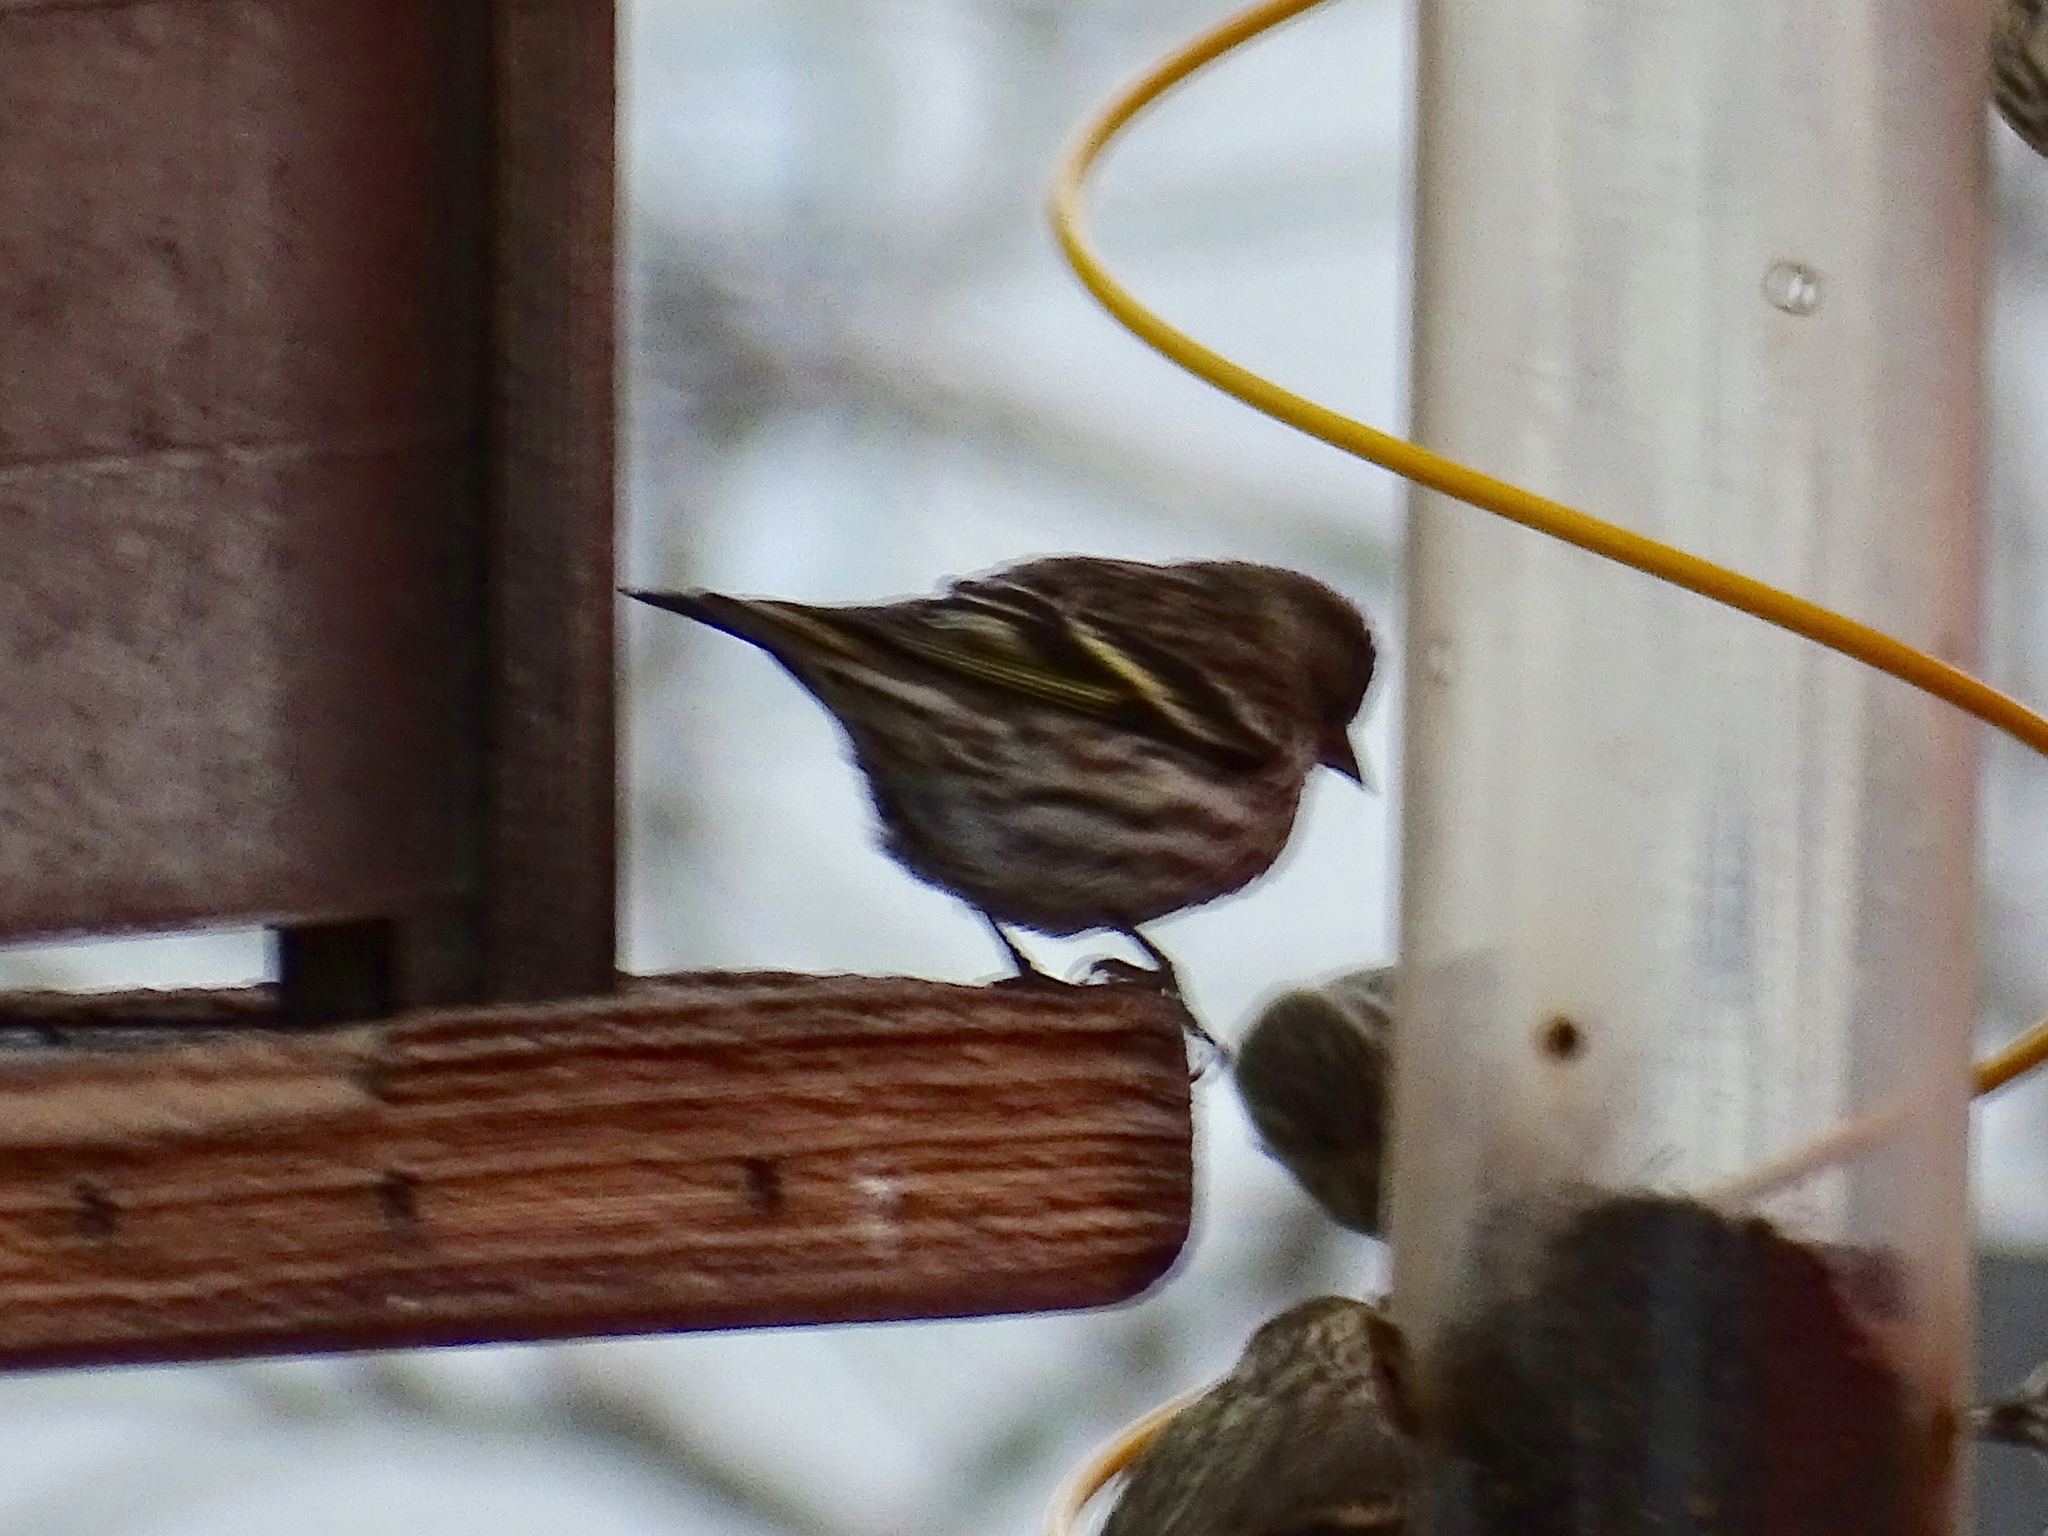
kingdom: Animalia
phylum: Chordata
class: Aves
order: Passeriformes
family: Fringillidae
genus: Spinus
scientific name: Spinus pinus
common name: Pine siskin
